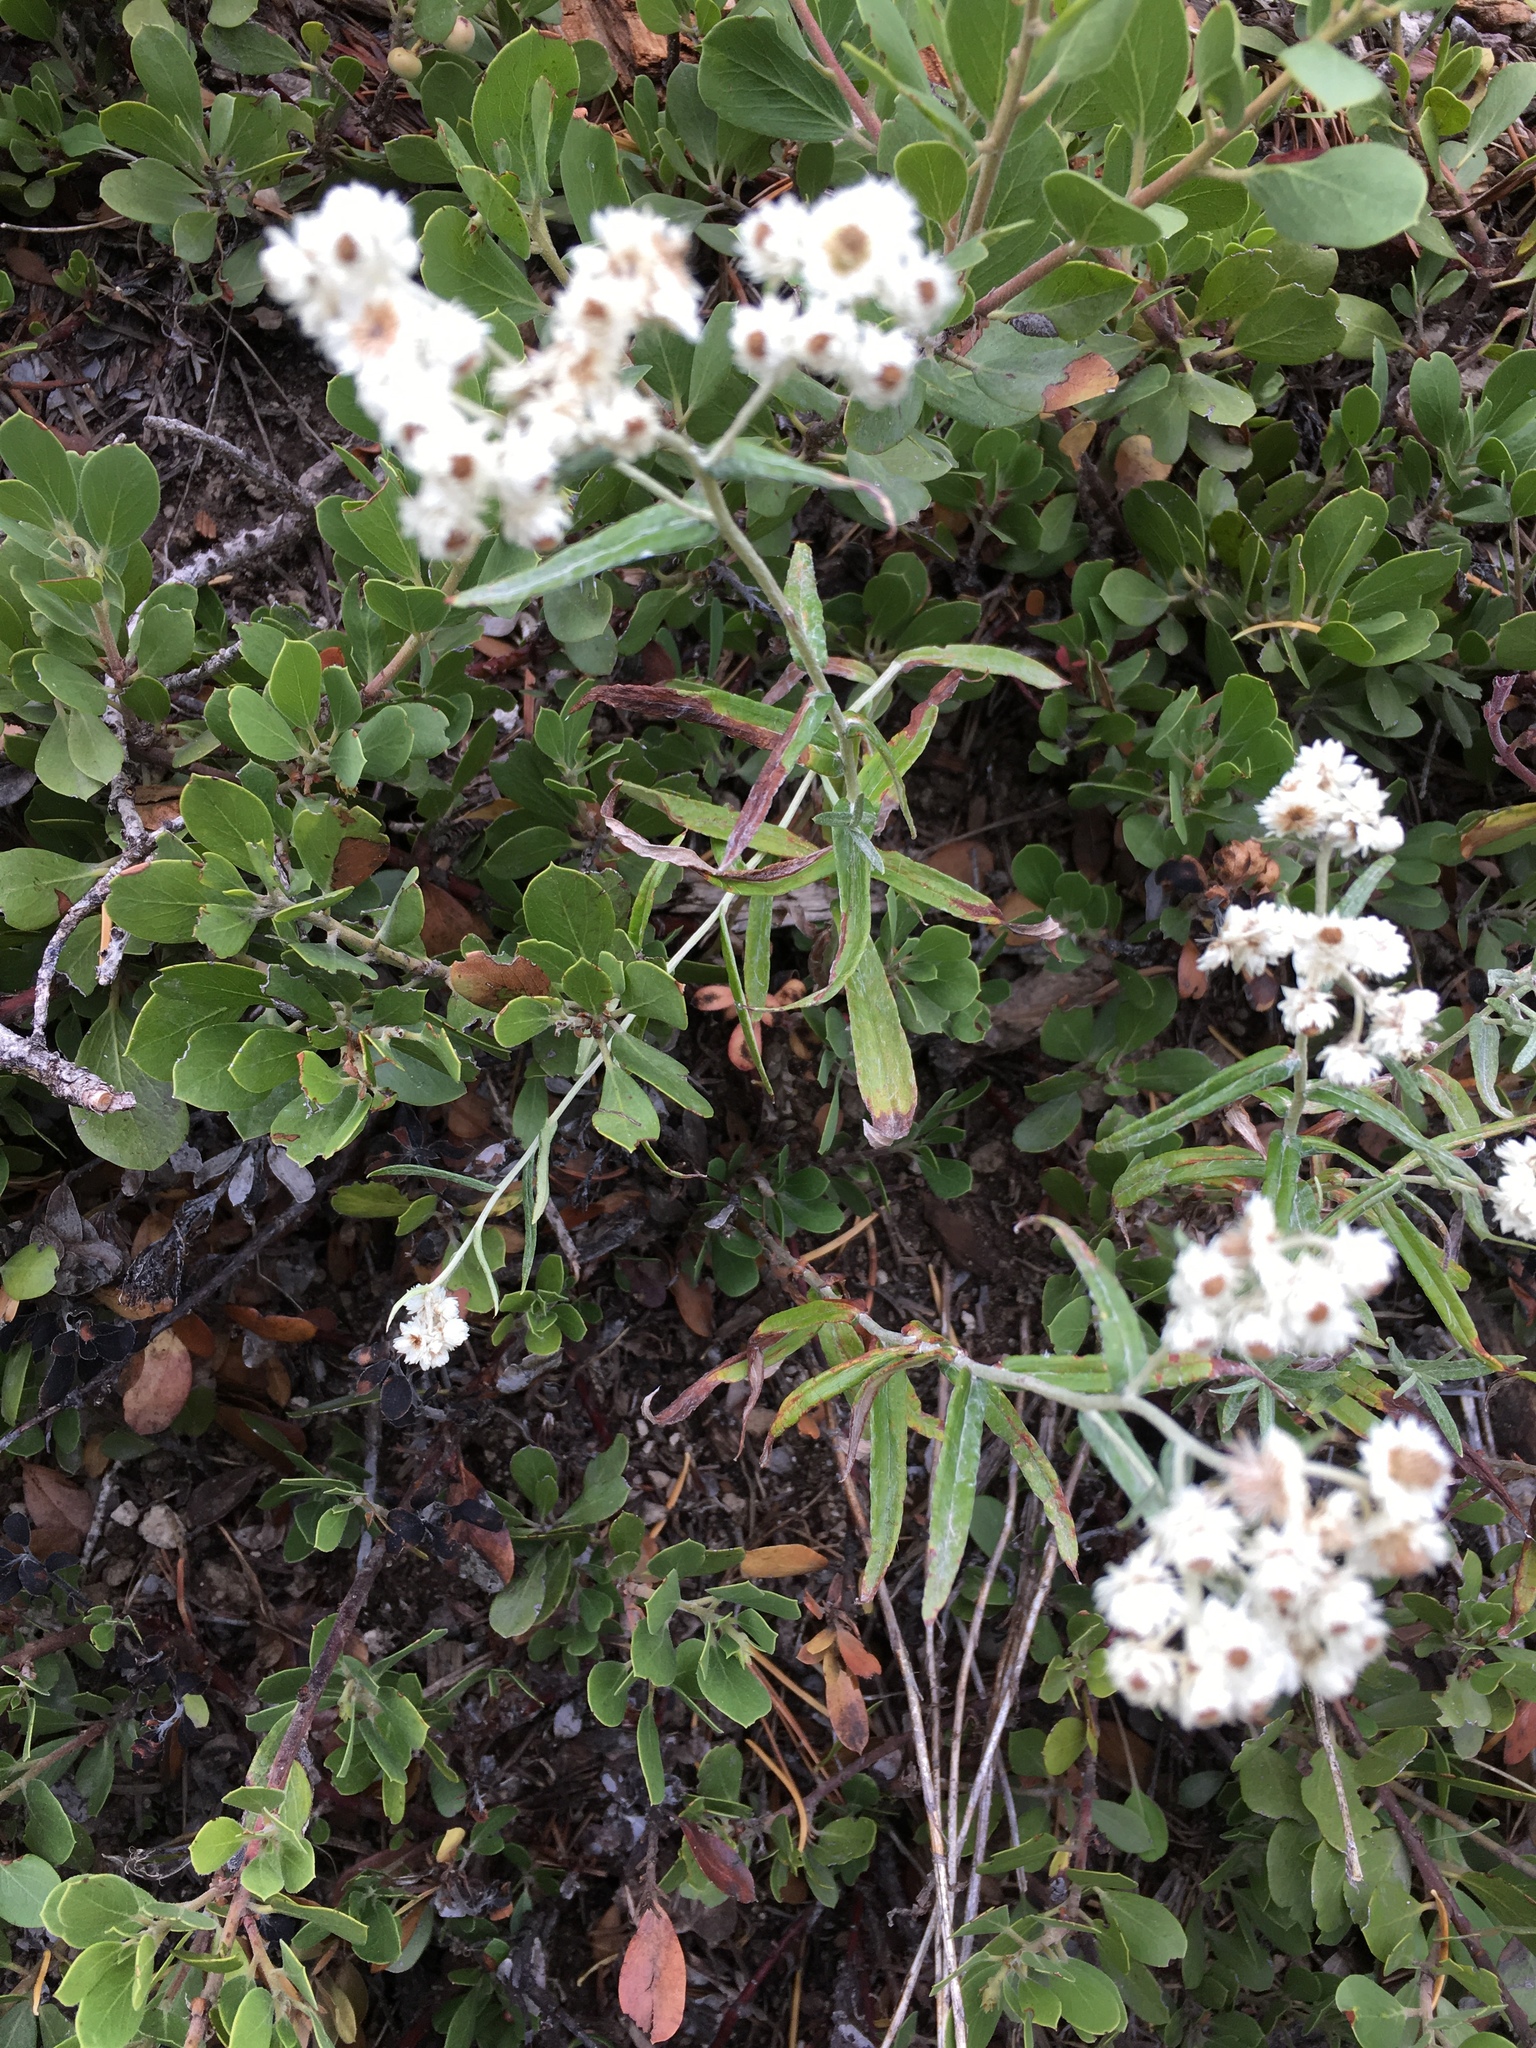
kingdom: Plantae
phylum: Tracheophyta
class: Magnoliopsida
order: Asterales
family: Asteraceae
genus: Anaphalis
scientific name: Anaphalis margaritacea
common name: Pearly everlasting
